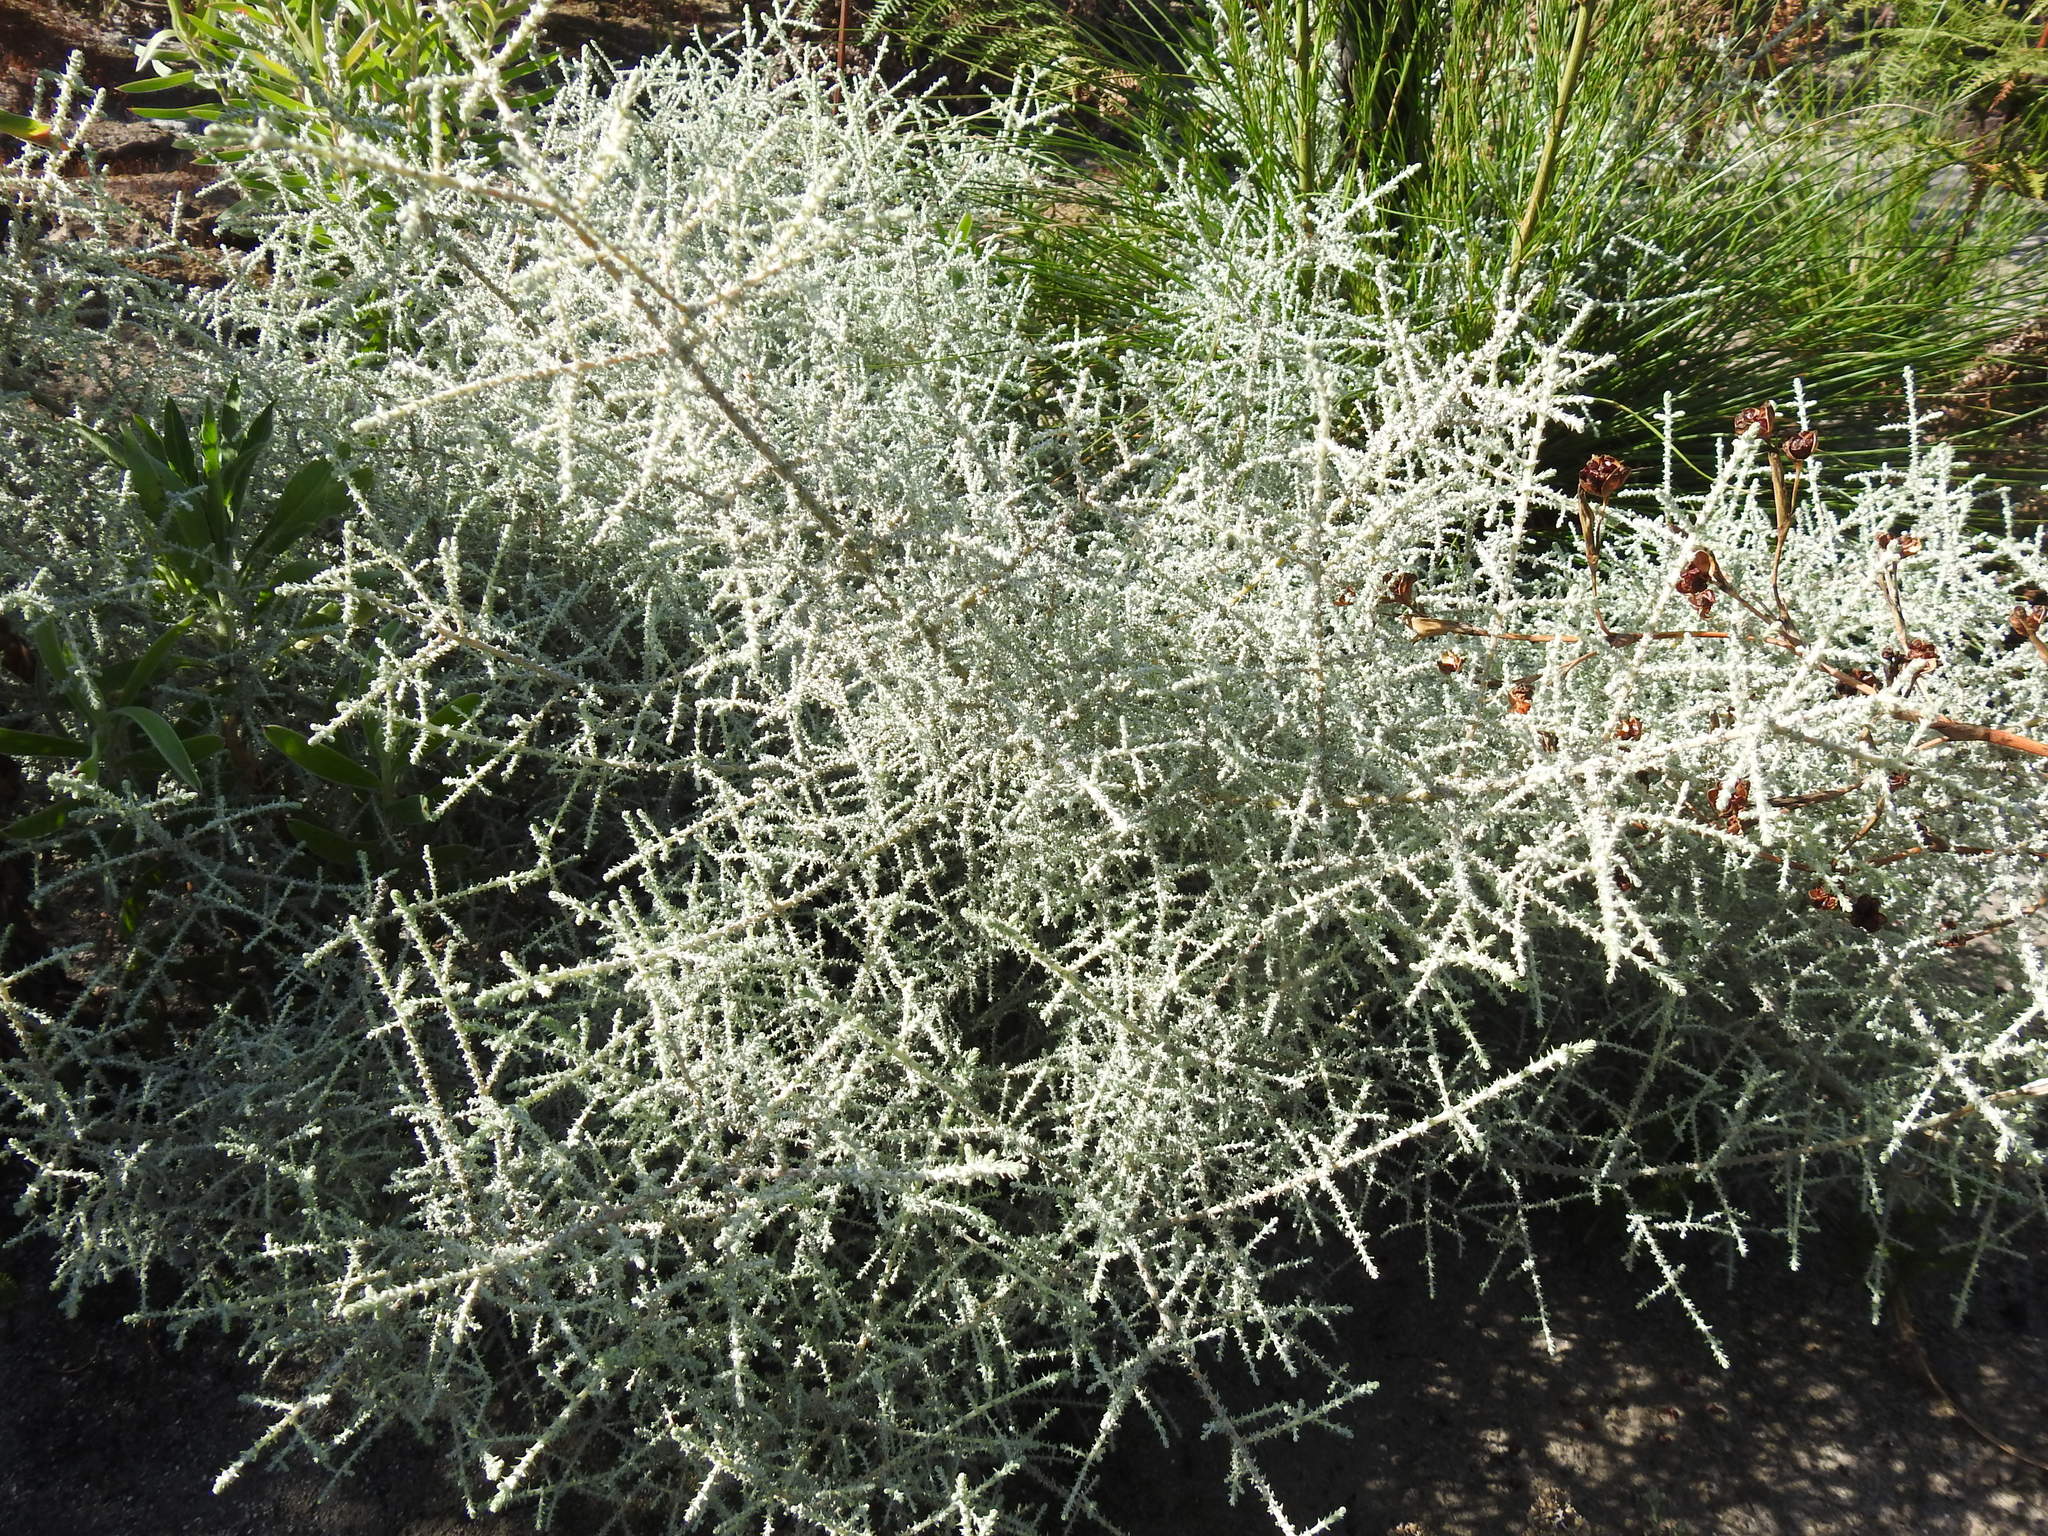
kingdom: Plantae
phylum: Tracheophyta
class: Magnoliopsida
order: Asterales
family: Asteraceae
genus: Seriphium
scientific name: Seriphium plumosum
